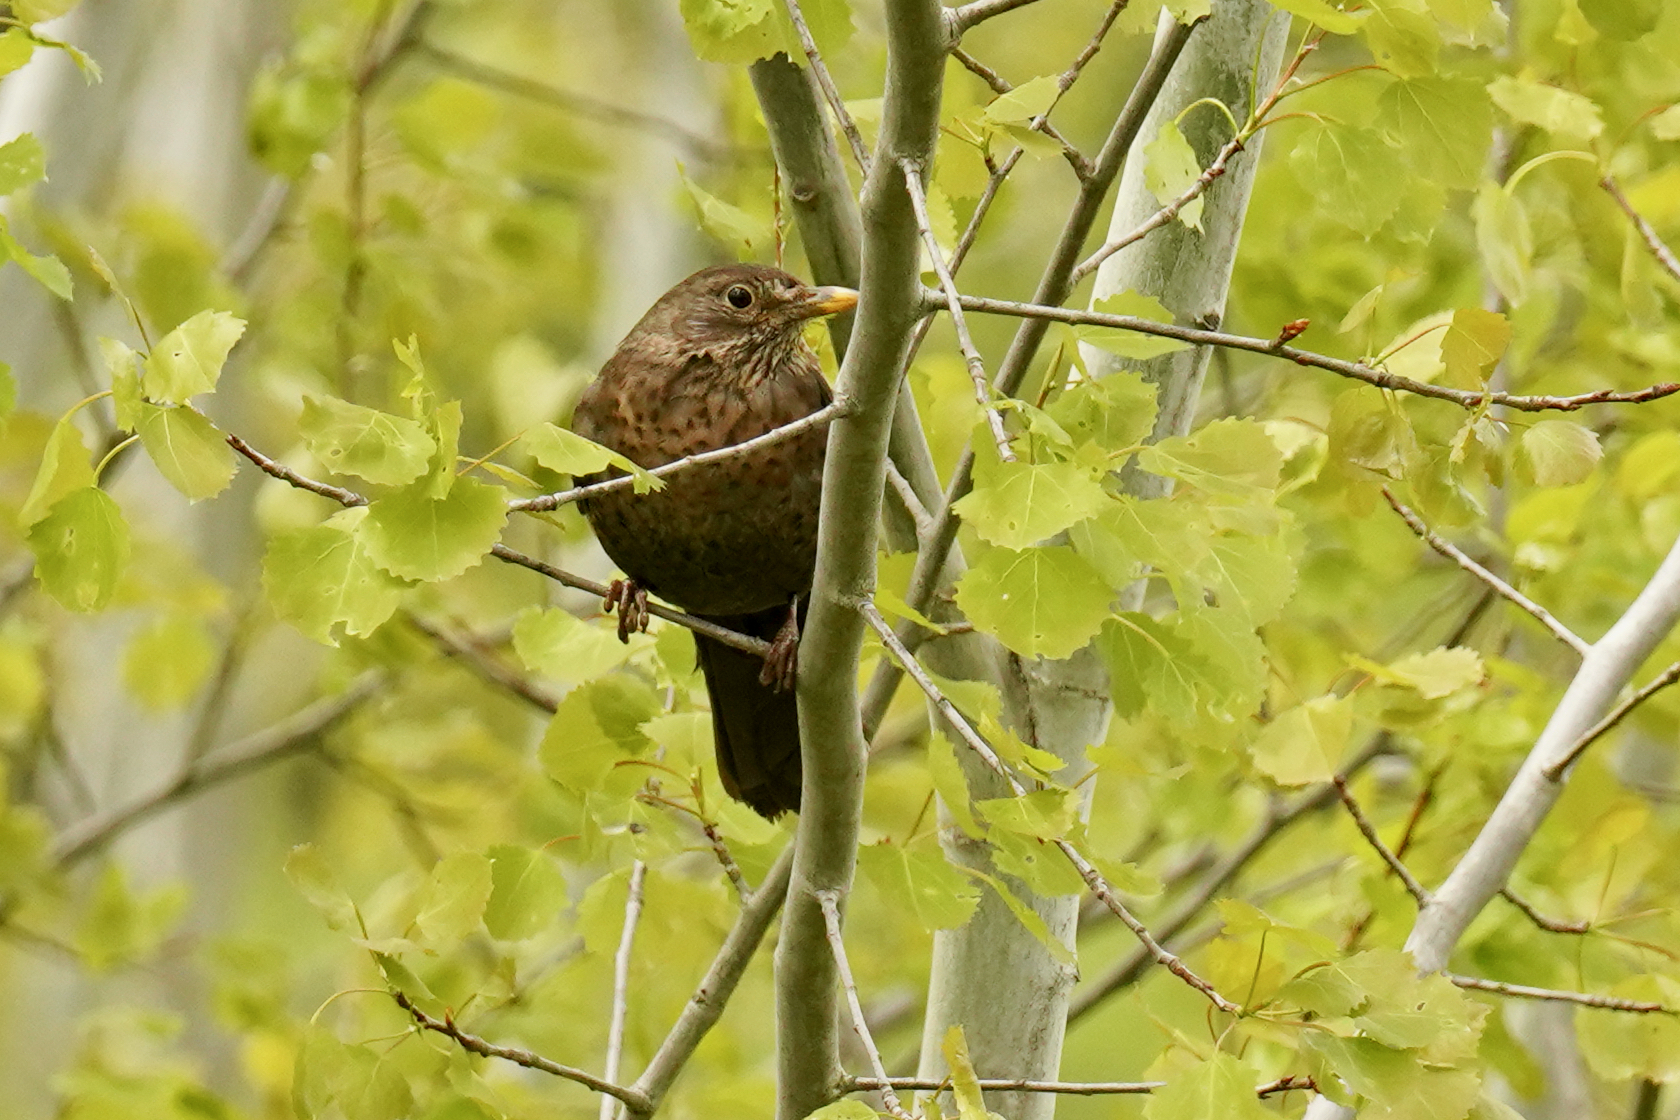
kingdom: Animalia
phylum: Chordata
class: Aves
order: Passeriformes
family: Turdidae
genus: Turdus
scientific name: Turdus merula
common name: Common blackbird
